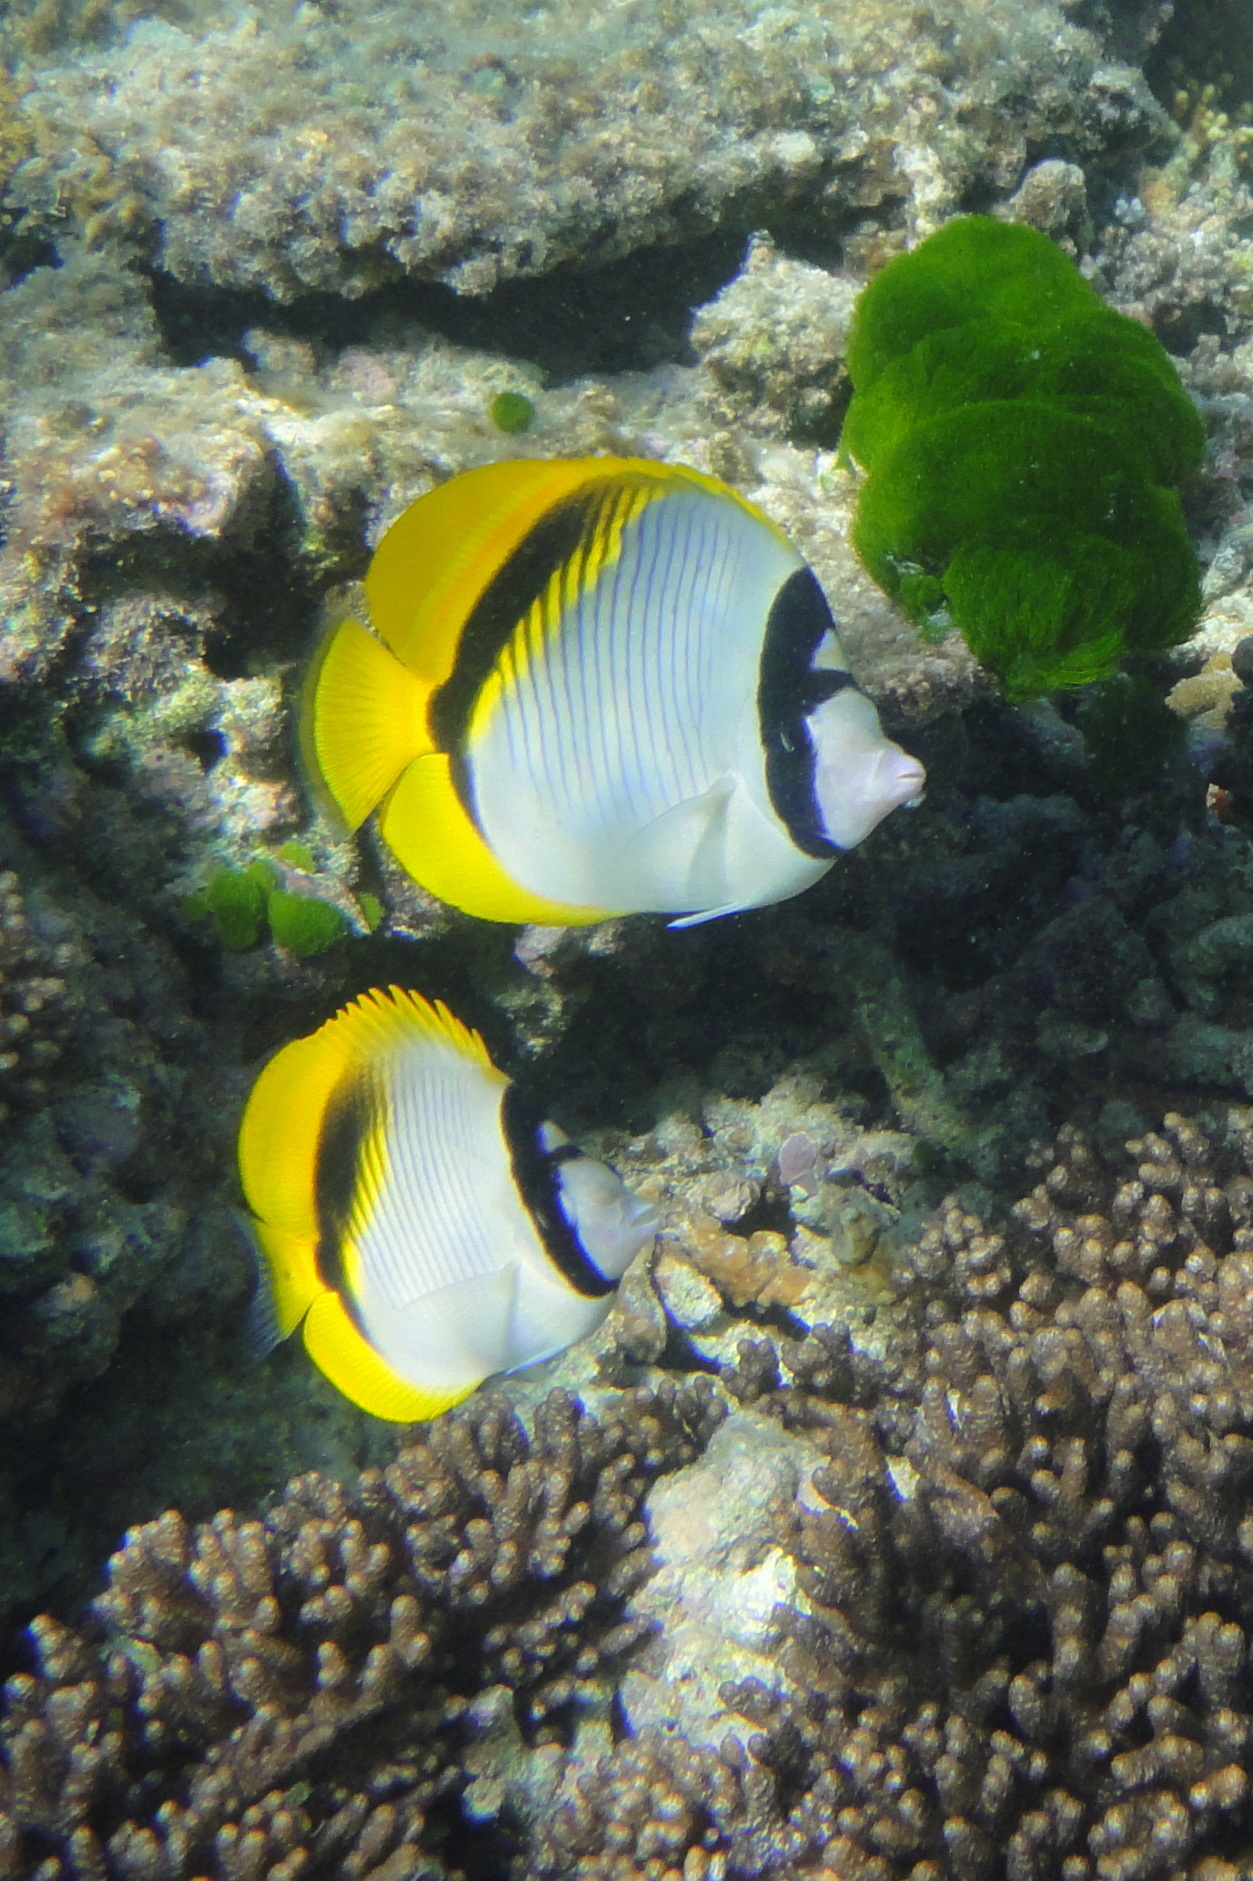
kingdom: Animalia
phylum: Chordata
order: Perciformes
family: Chaetodontidae
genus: Chaetodon
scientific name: Chaetodon lineolatus
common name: Lined butterflyfish
